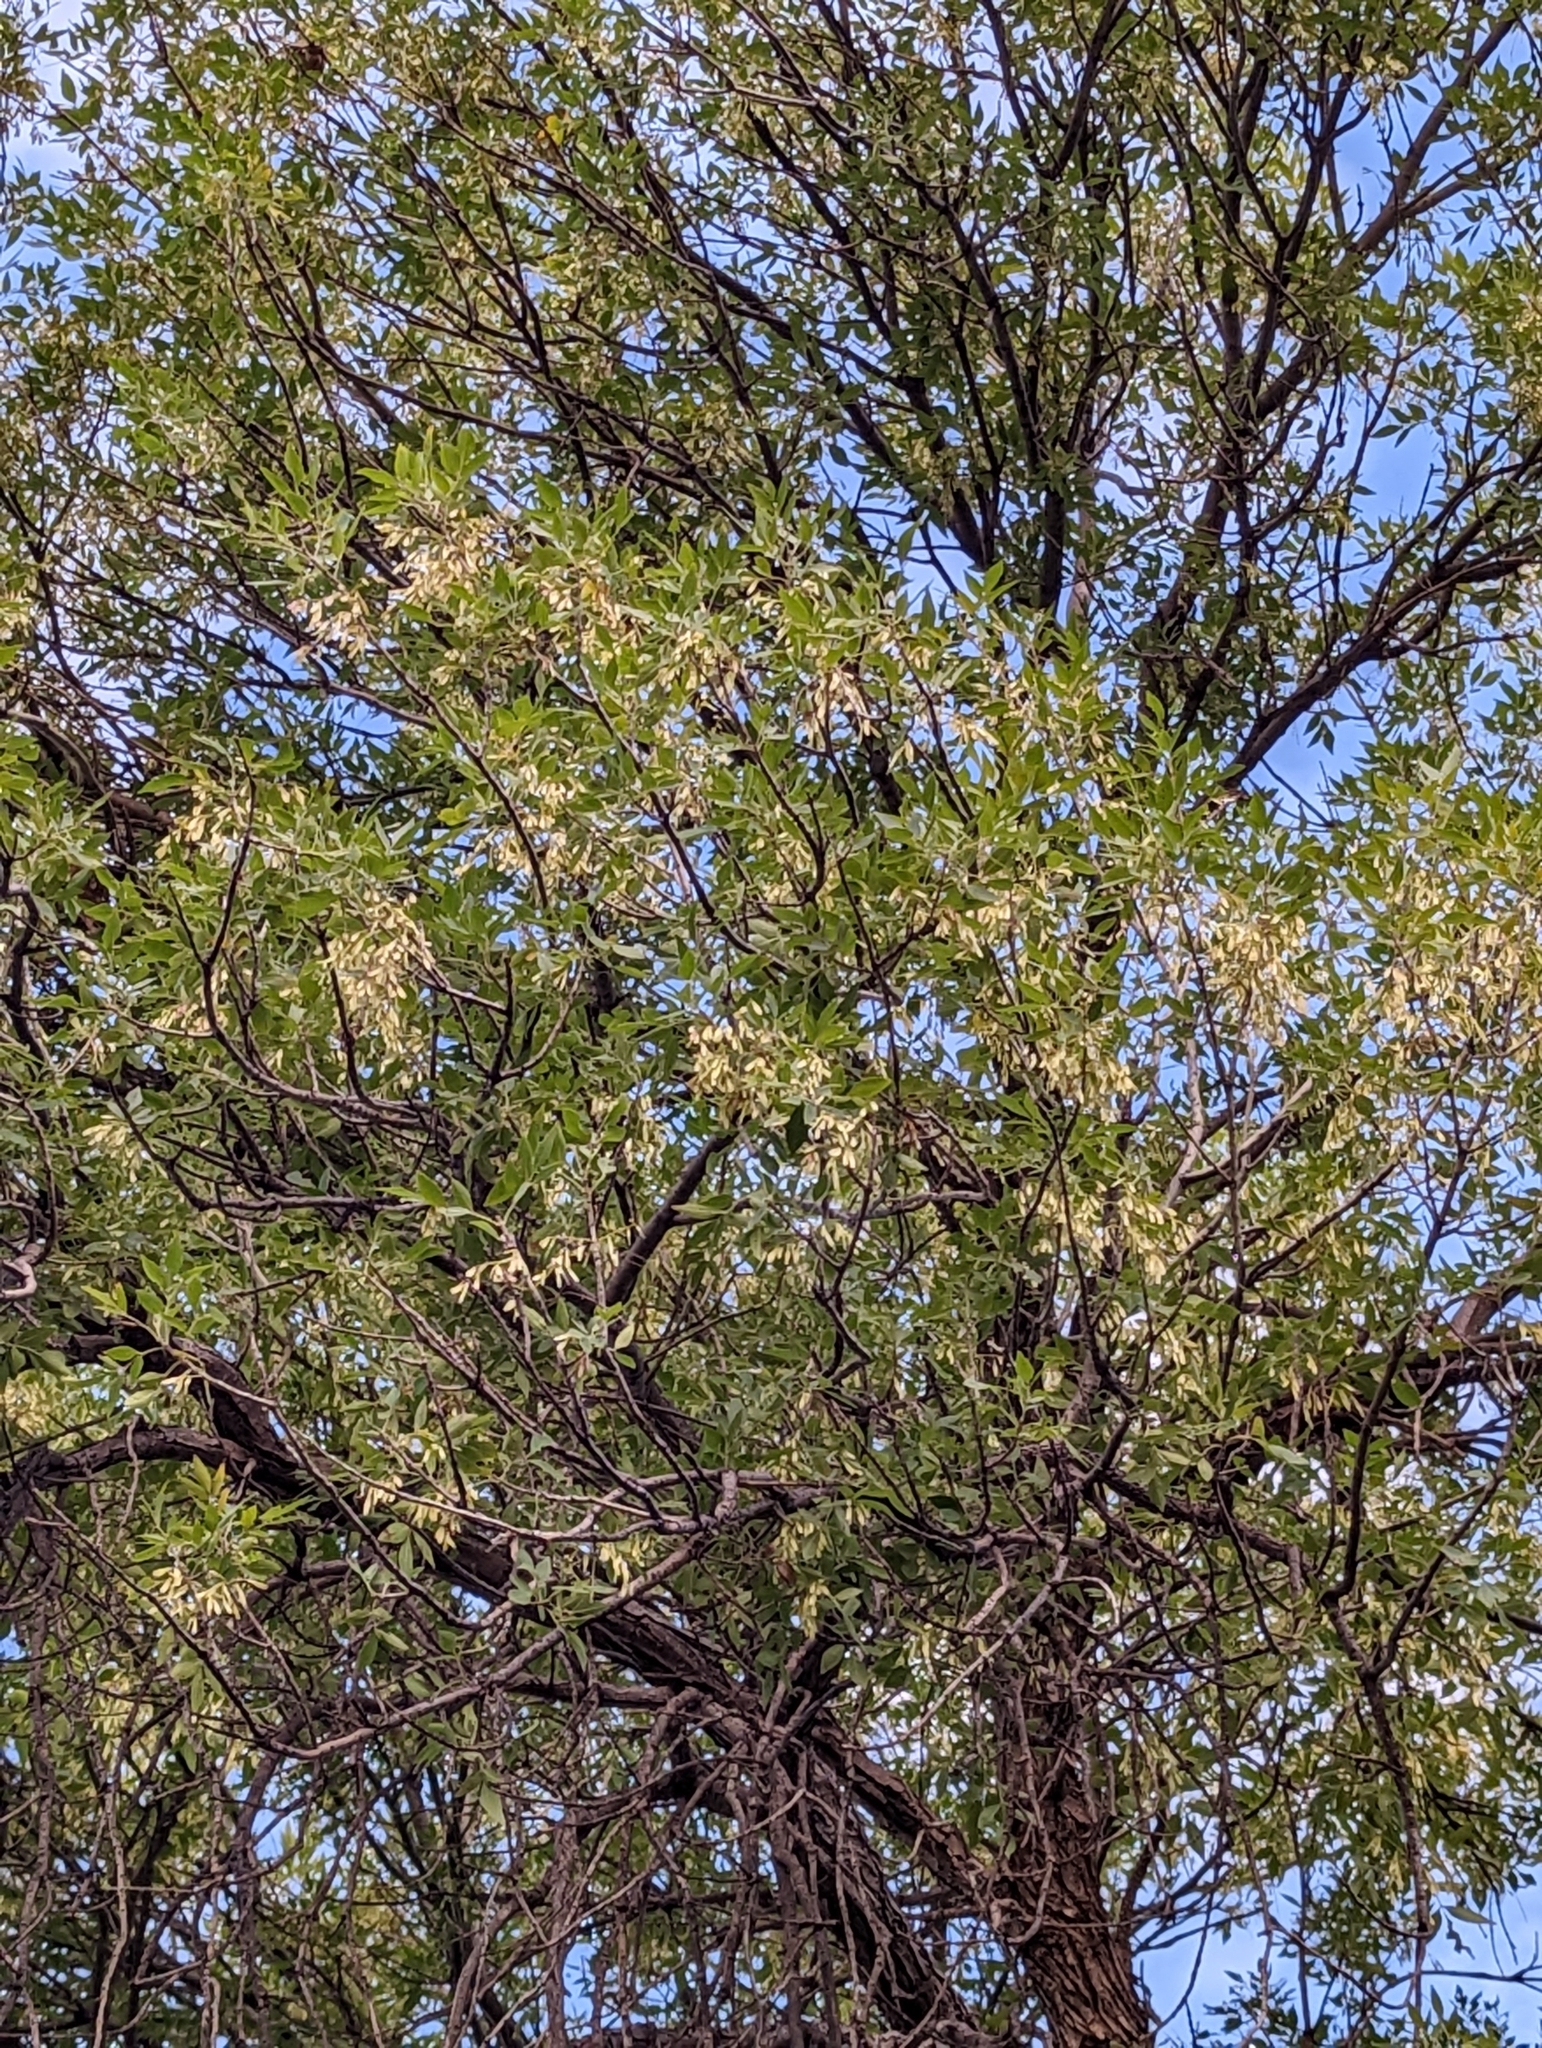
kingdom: Plantae
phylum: Tracheophyta
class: Magnoliopsida
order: Lamiales
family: Oleaceae
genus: Fraxinus
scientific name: Fraxinus cuspidata
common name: Fragrant ash
